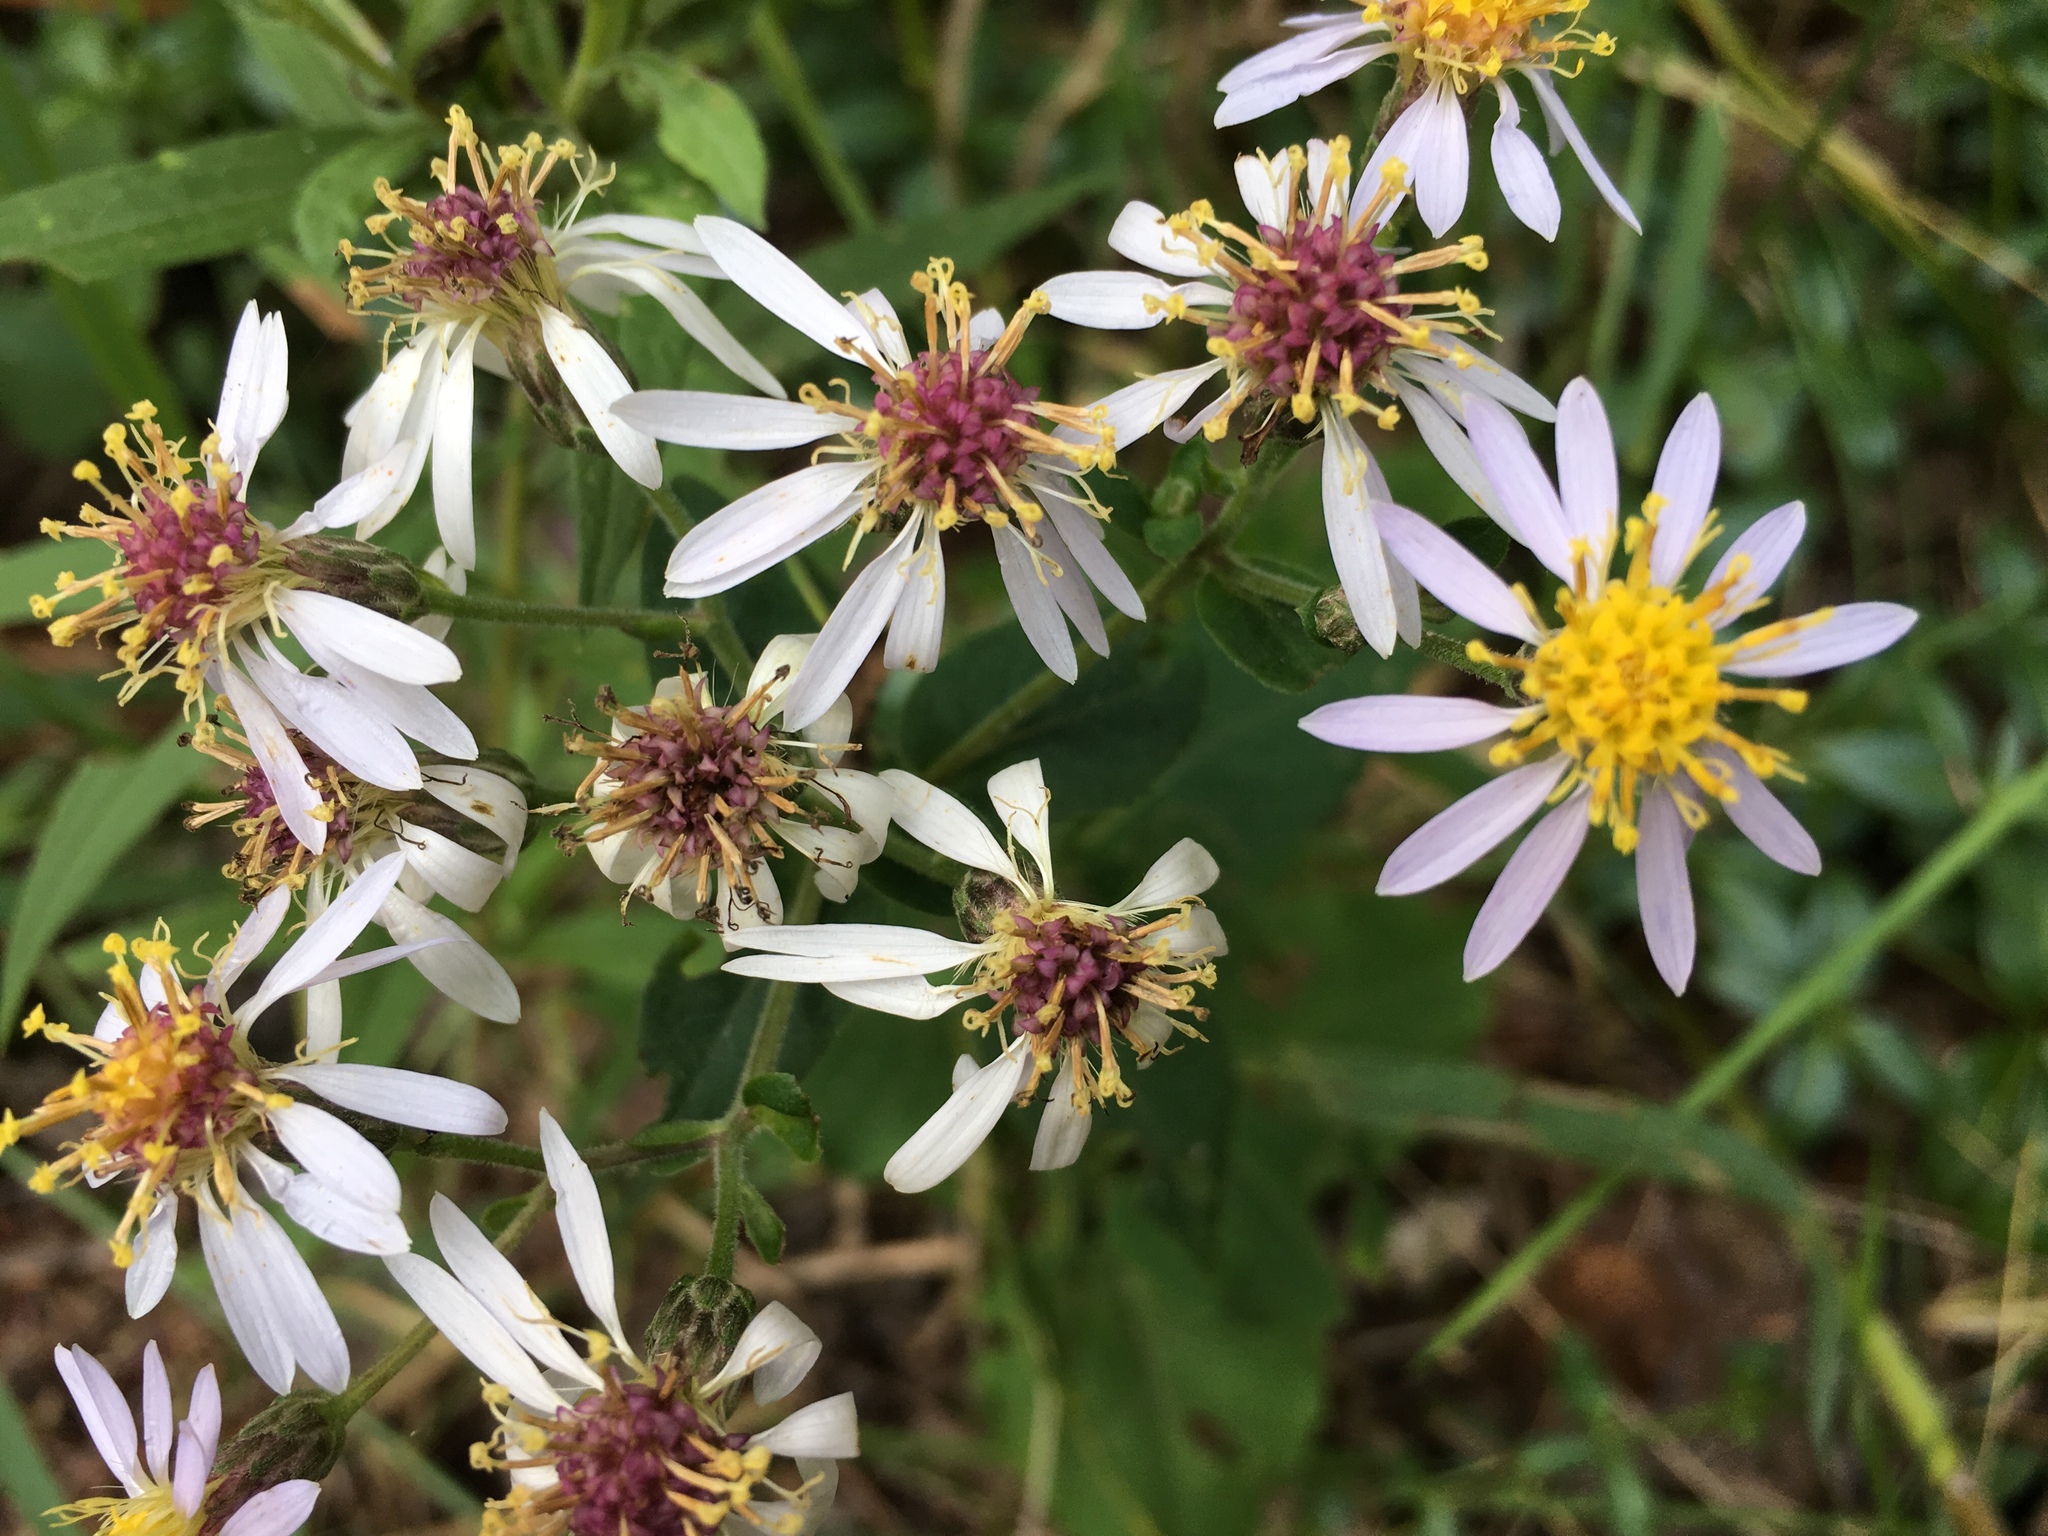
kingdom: Plantae
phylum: Tracheophyta
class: Magnoliopsida
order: Asterales
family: Asteraceae
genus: Eurybia
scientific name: Eurybia macrophylla
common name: Big-leaved aster
